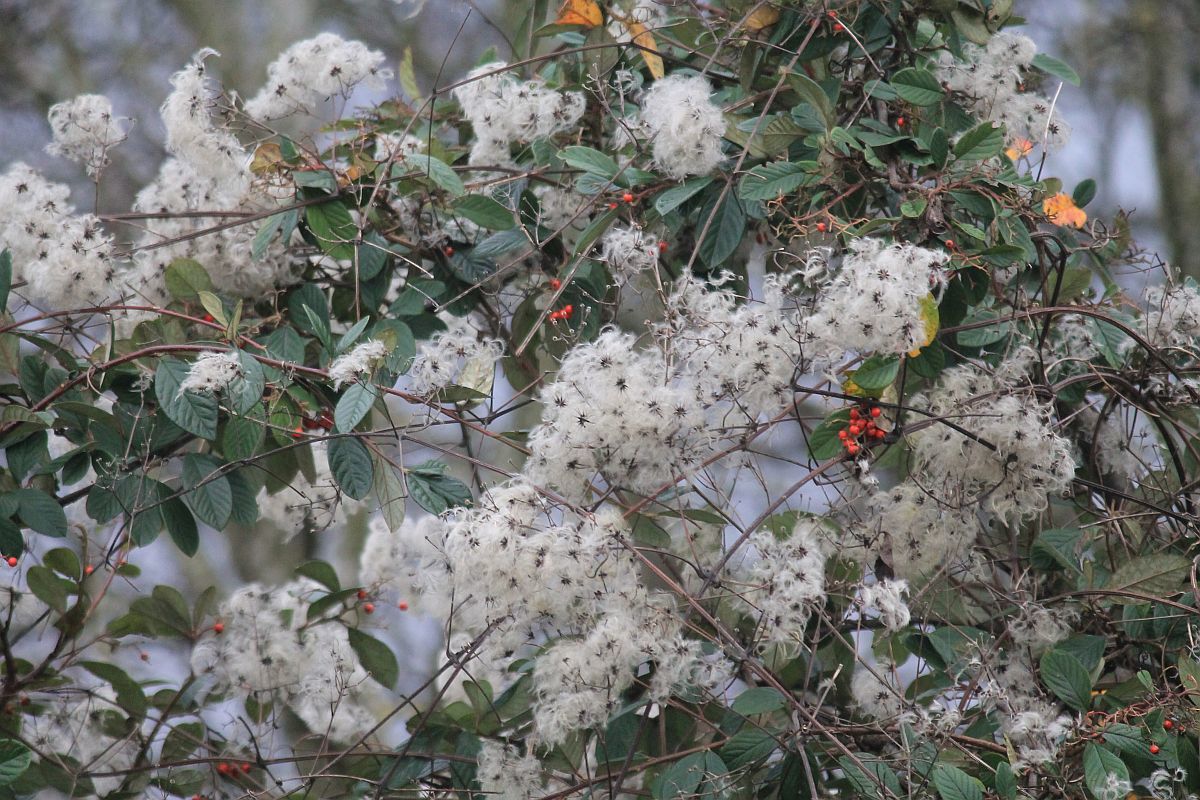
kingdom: Plantae
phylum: Tracheophyta
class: Magnoliopsida
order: Ranunculales
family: Ranunculaceae
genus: Clematis
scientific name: Clematis vitalba
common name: Evergreen clematis
